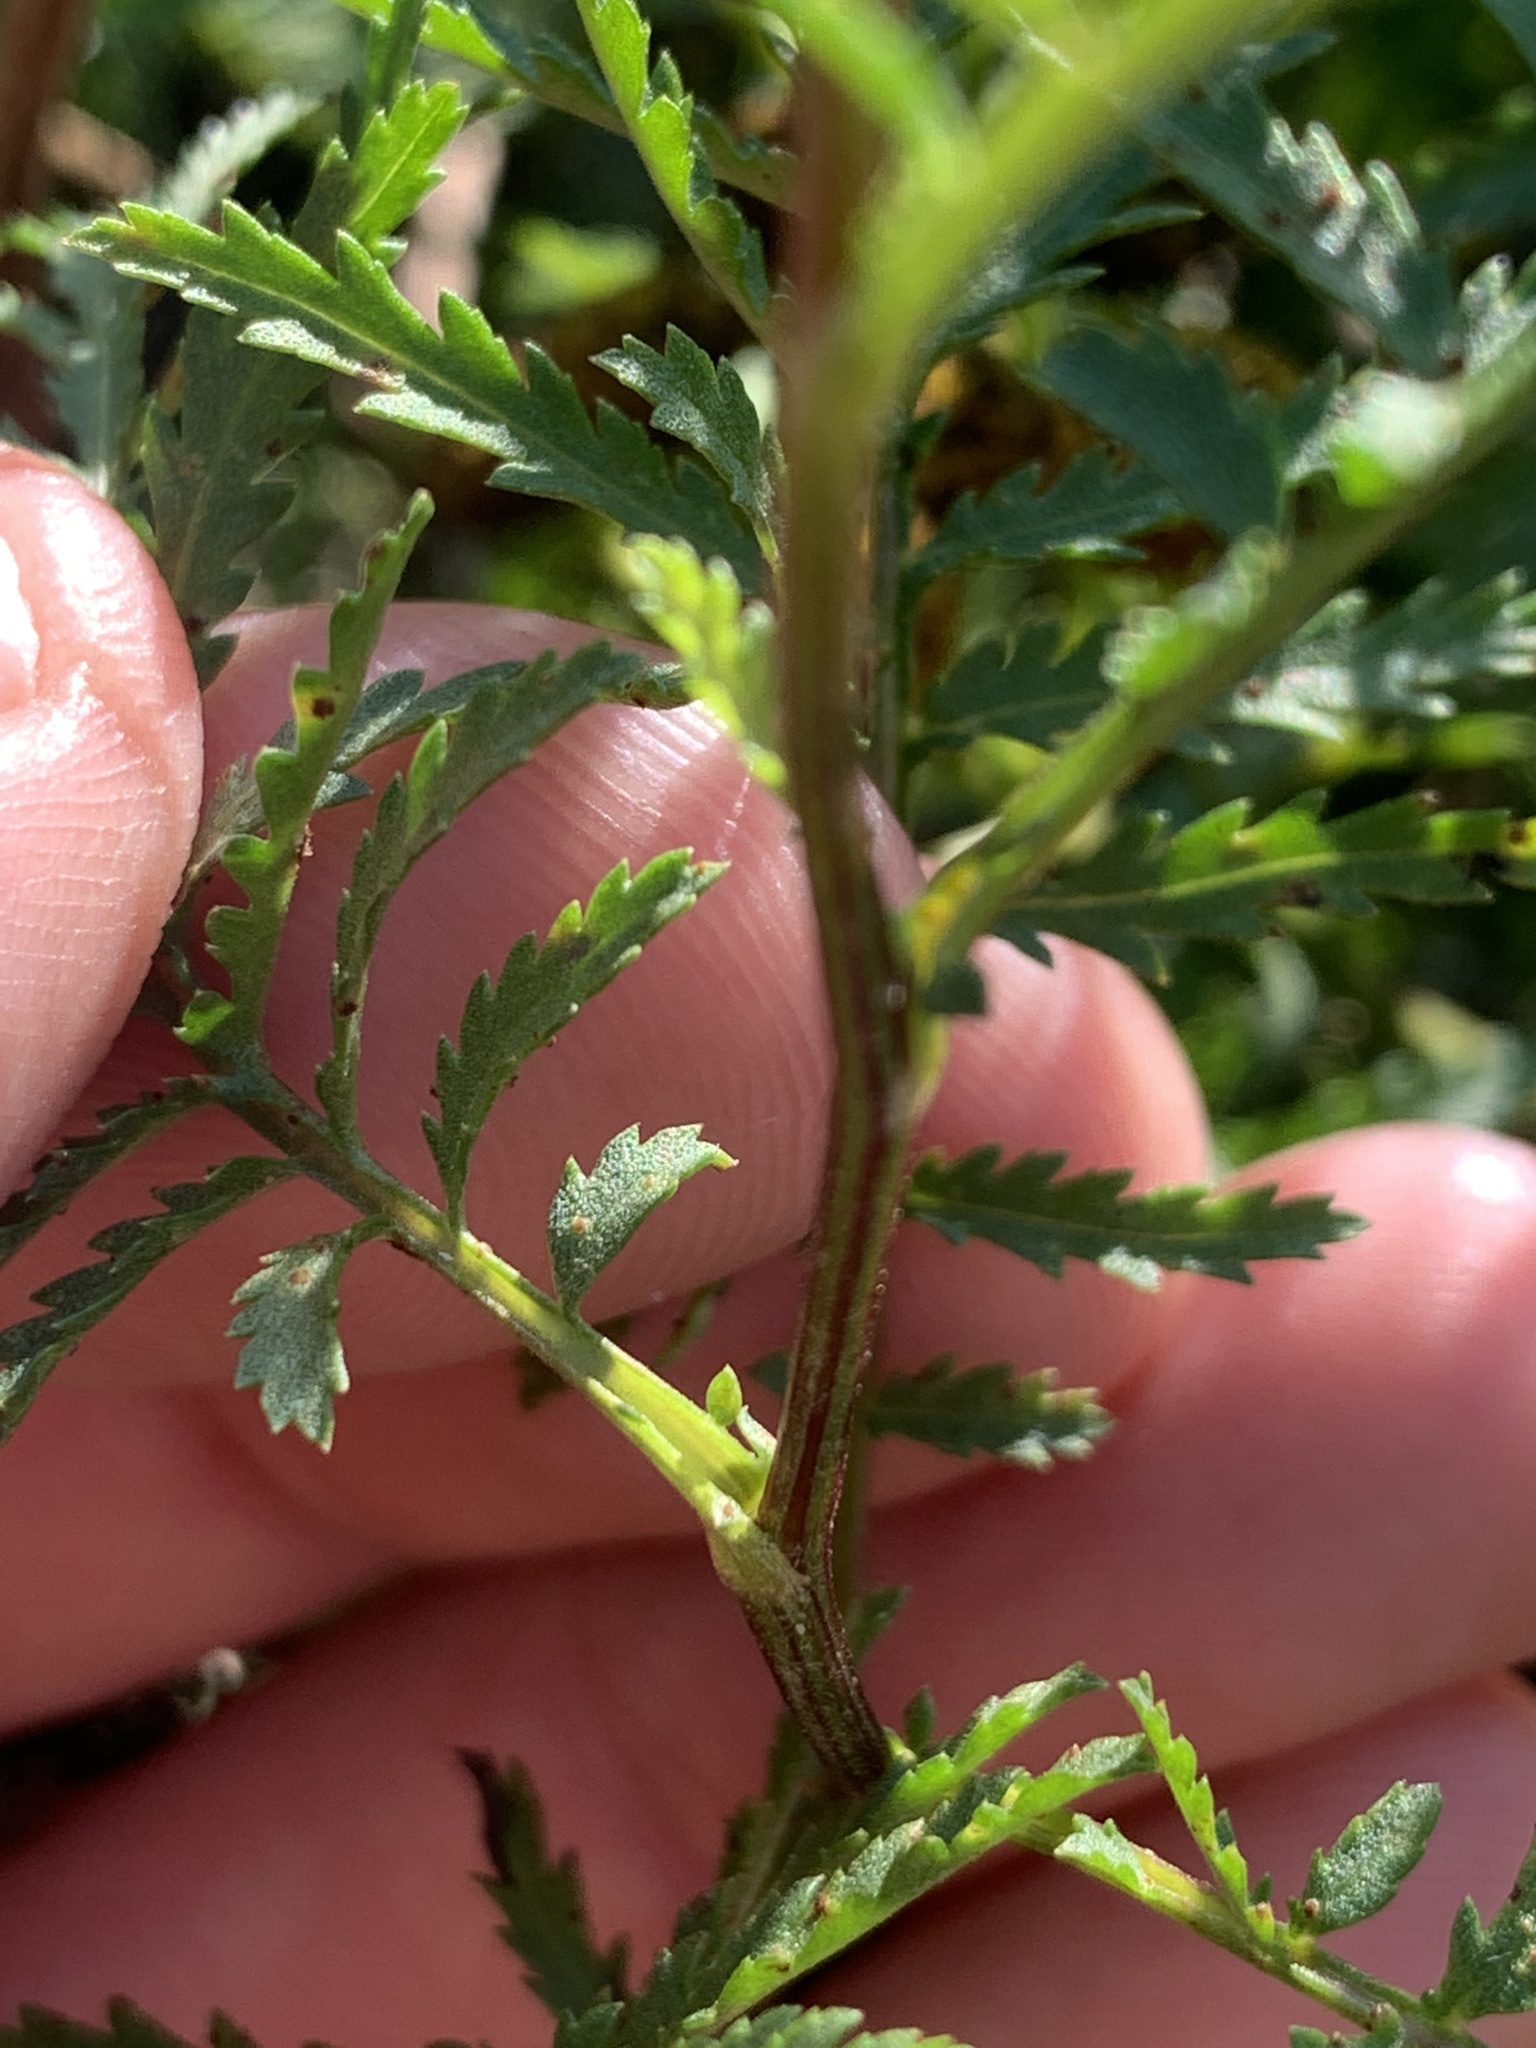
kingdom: Plantae
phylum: Tracheophyta
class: Magnoliopsida
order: Asterales
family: Asteraceae
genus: Tanacetum
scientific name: Tanacetum vulgare
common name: Common tansy
